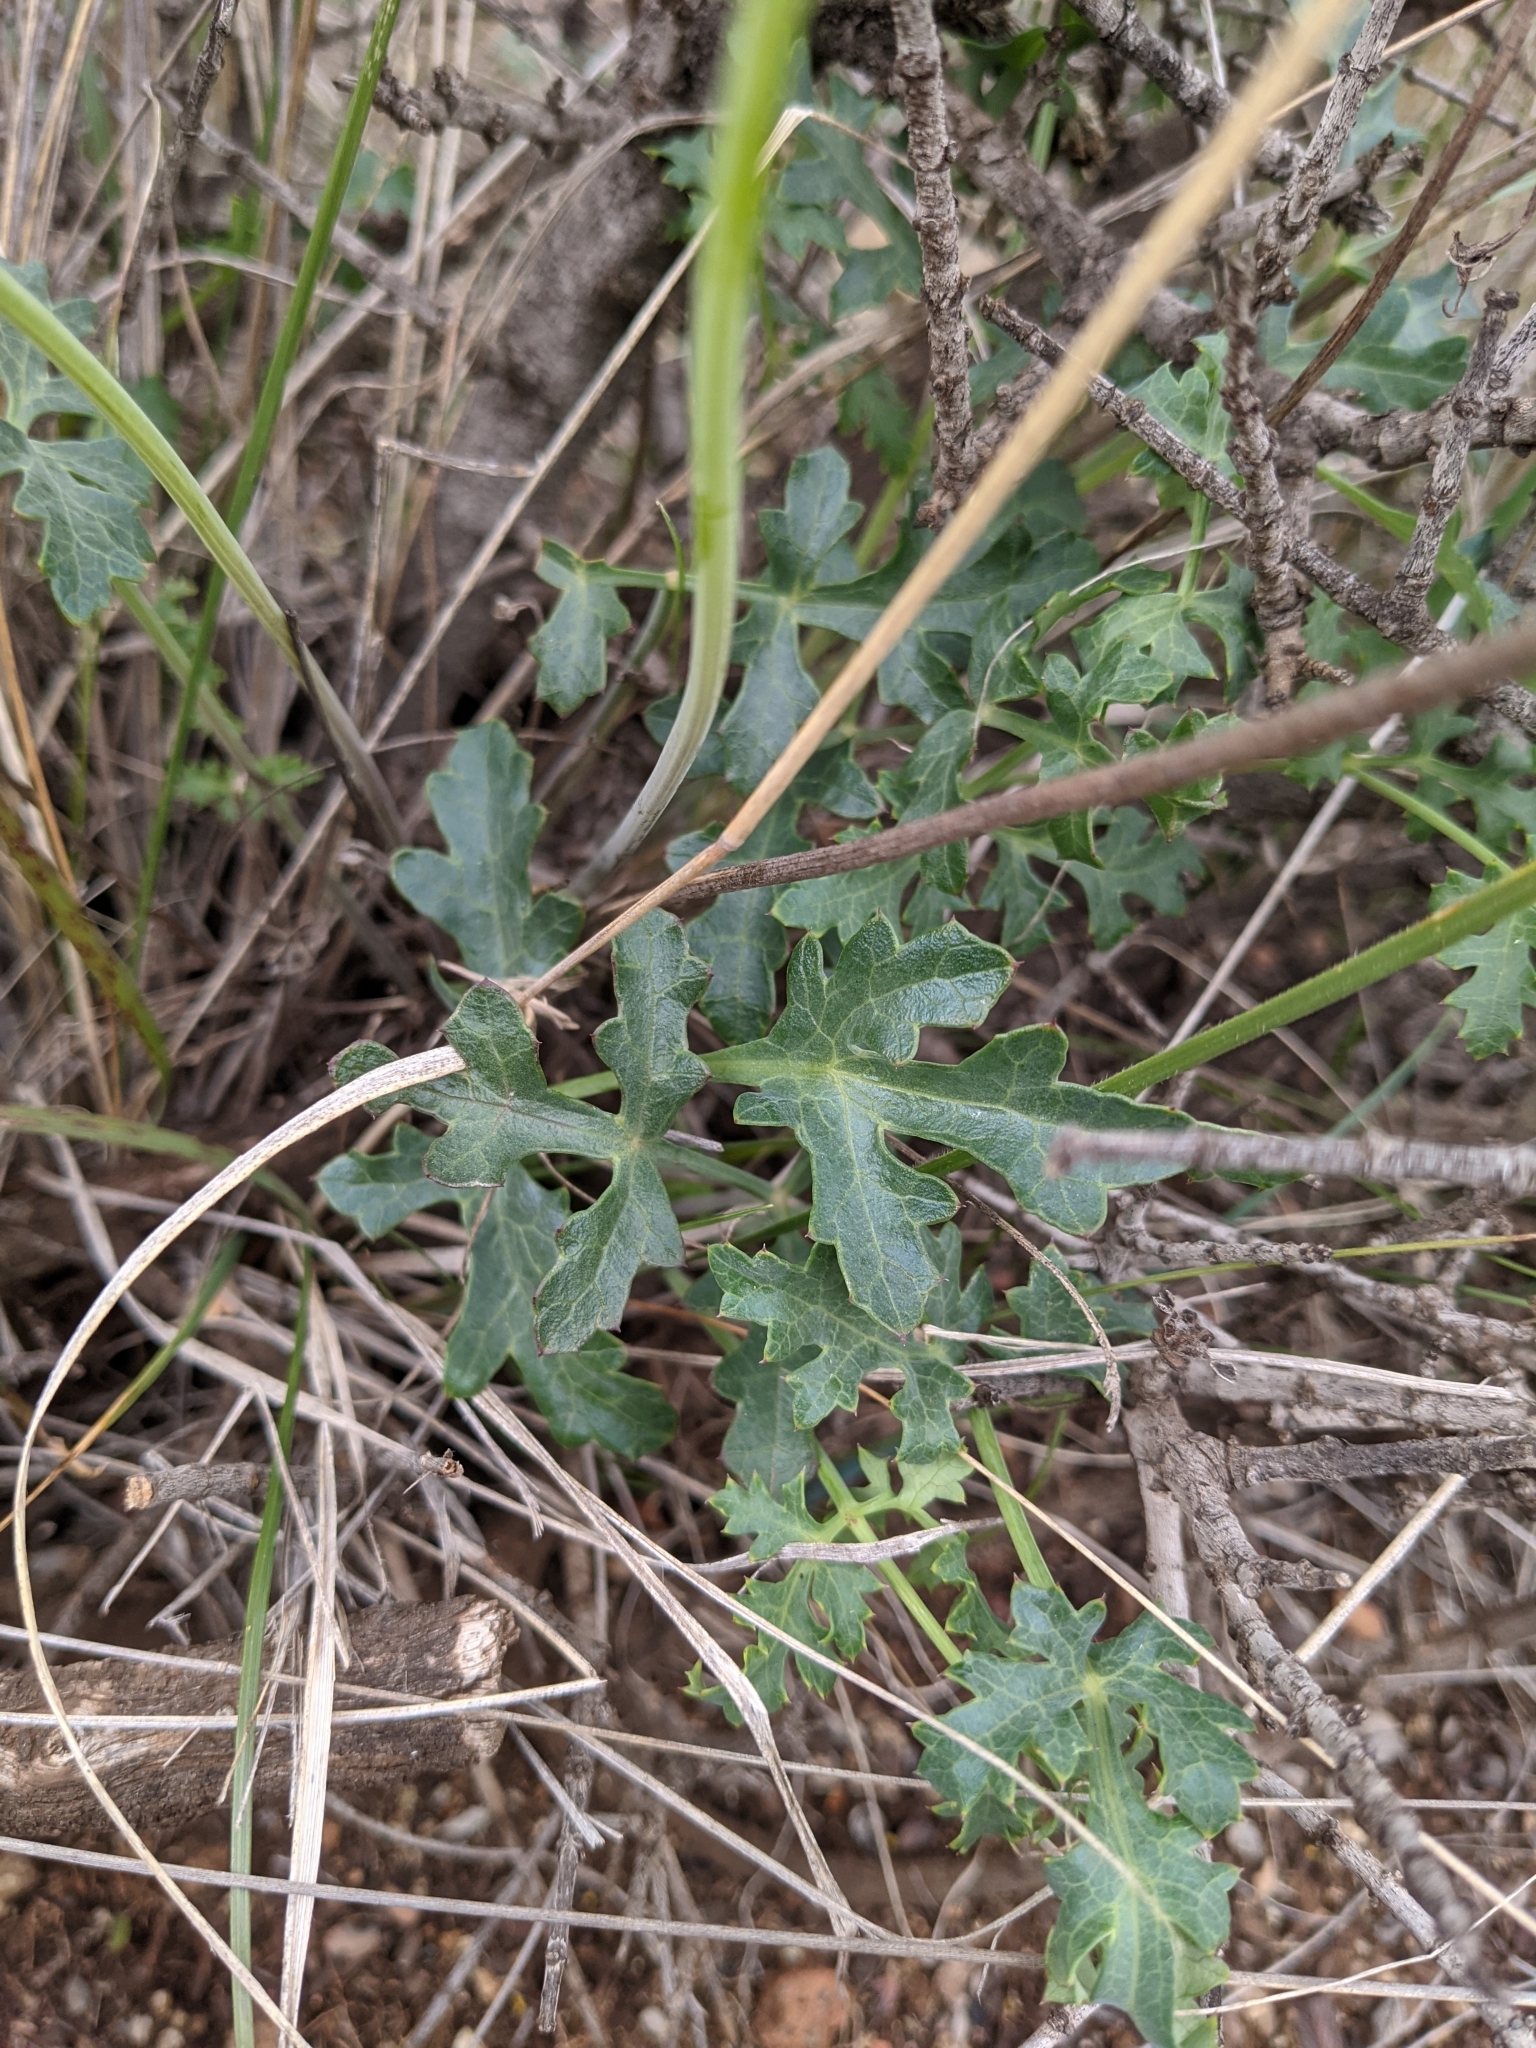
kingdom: Plantae
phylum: Tracheophyta
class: Magnoliopsida
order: Apiales
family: Apiaceae
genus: Lomatium
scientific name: Lomatium parvifolium
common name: Small-leaf lomatium
